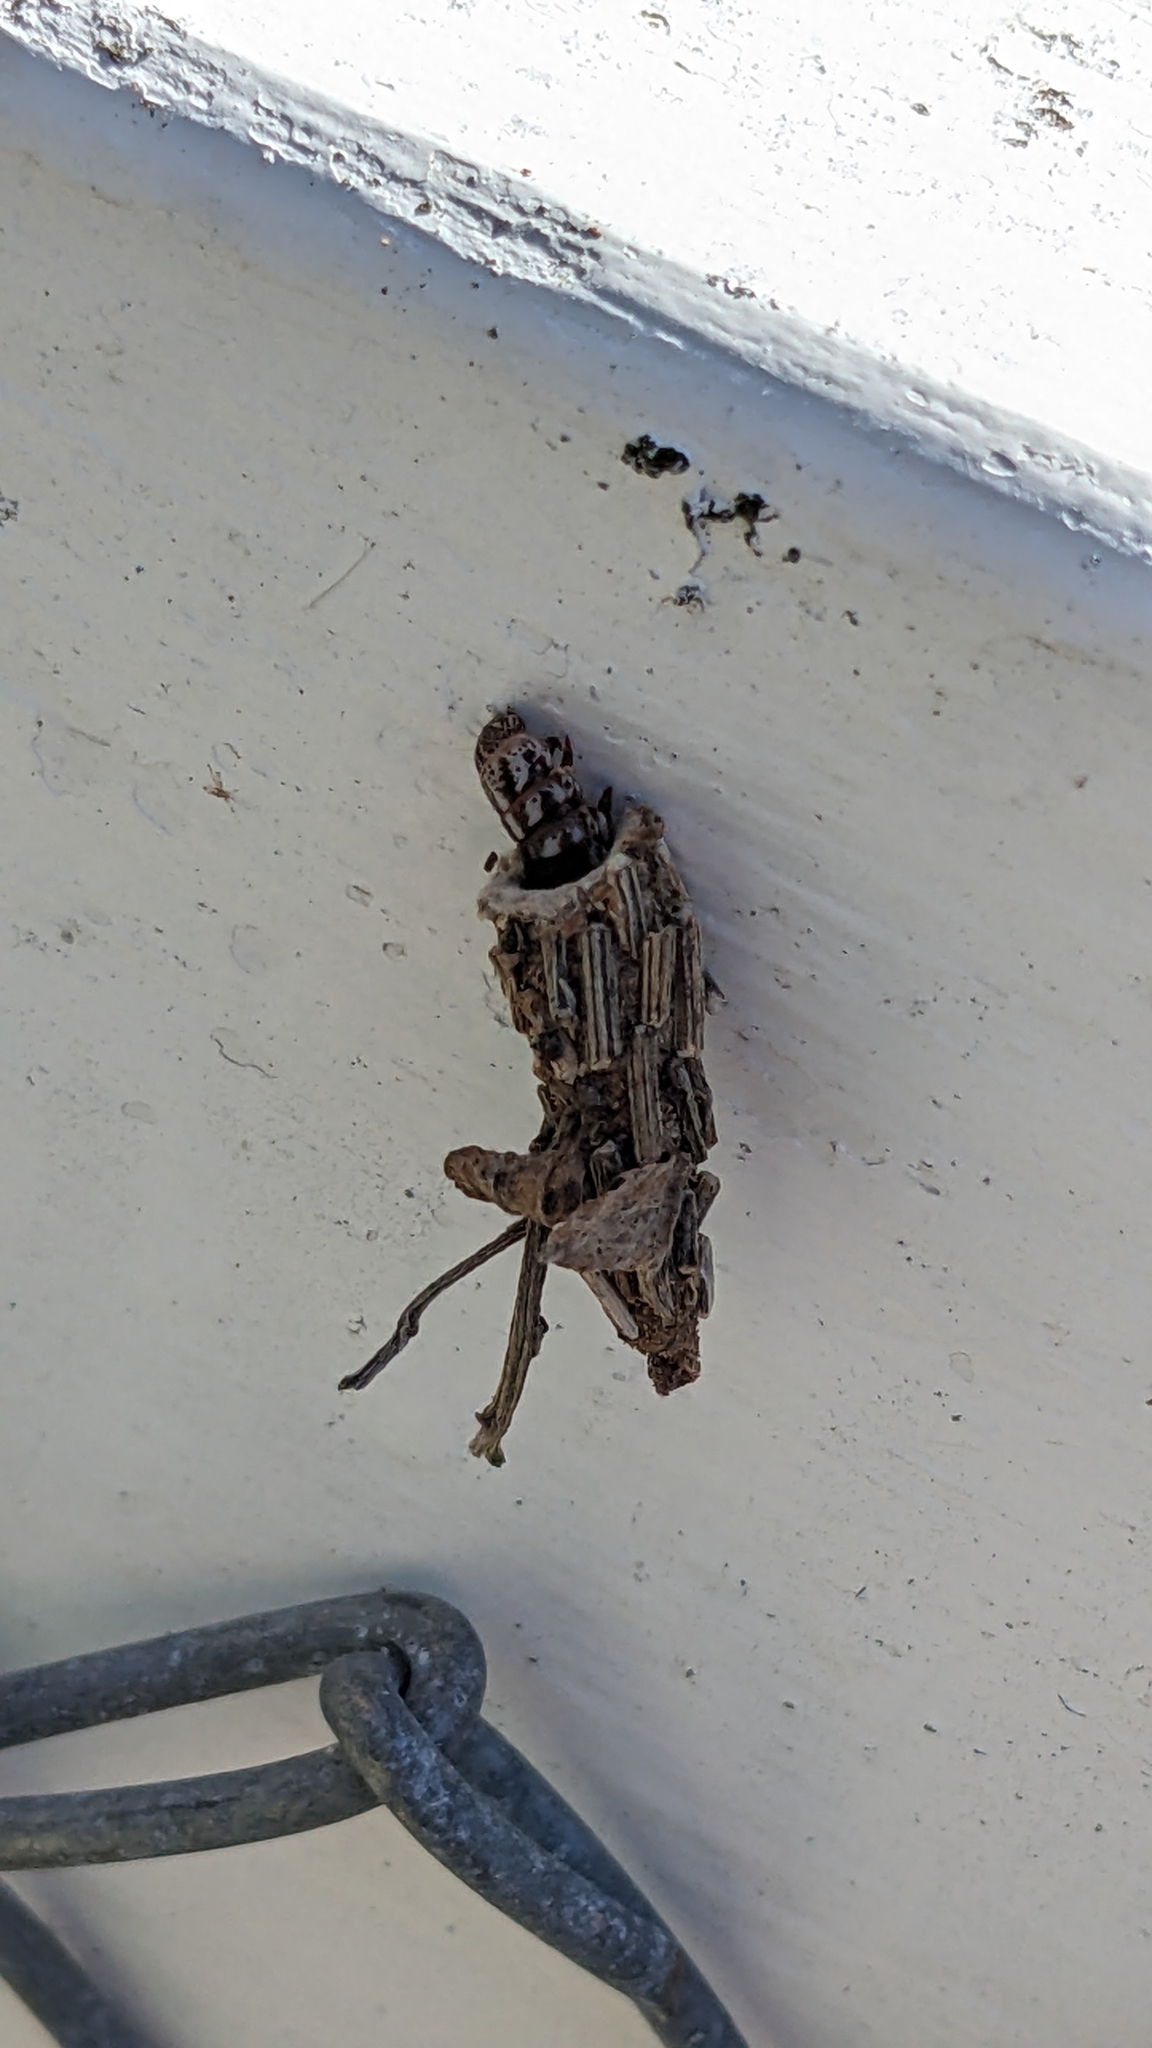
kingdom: Animalia
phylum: Arthropoda
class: Insecta
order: Lepidoptera
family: Psychidae
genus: Liothula
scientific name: Liothula omnivora
